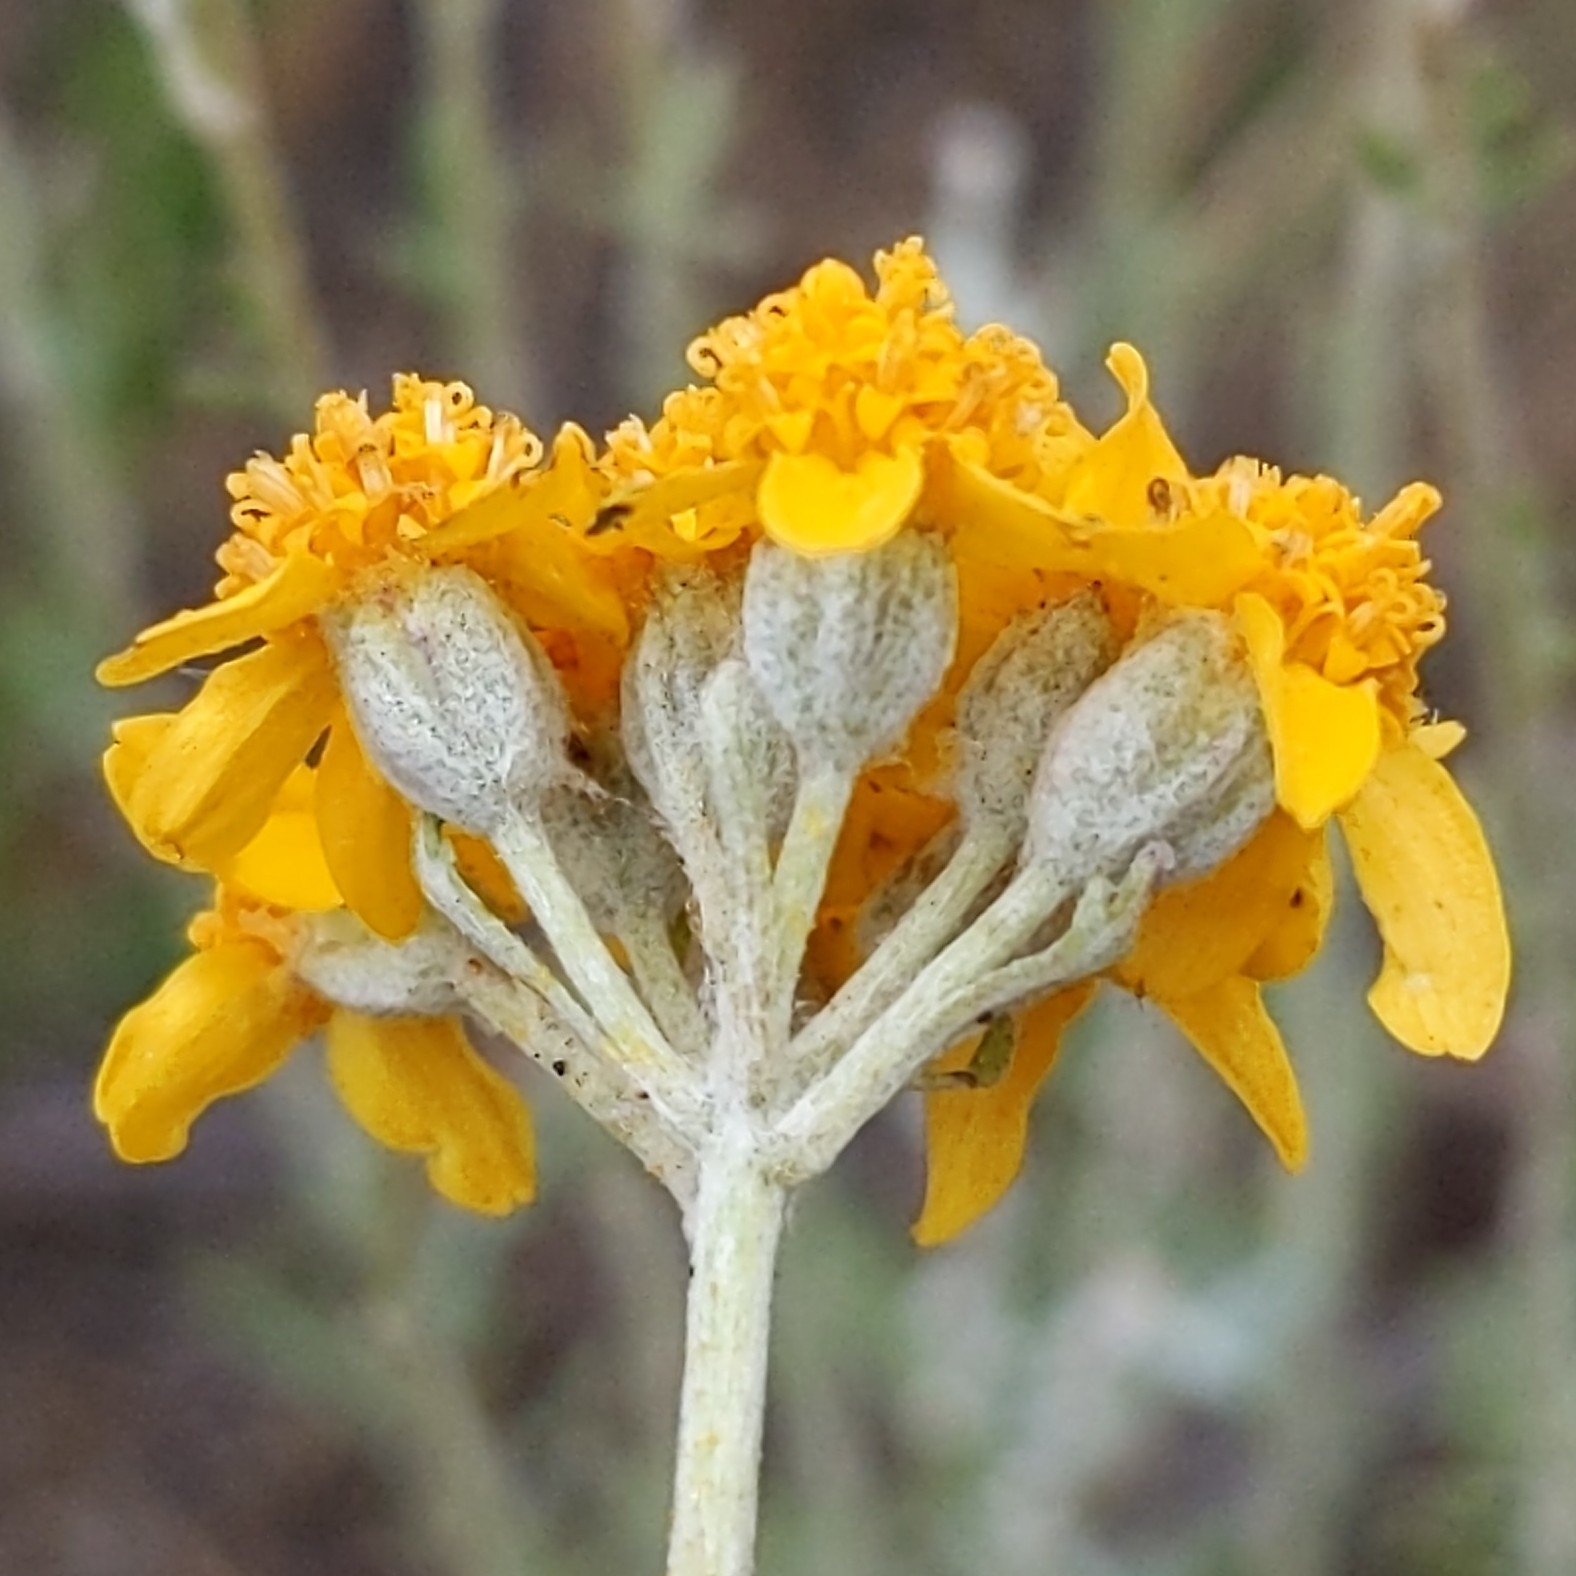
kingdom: Plantae
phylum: Tracheophyta
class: Magnoliopsida
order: Asterales
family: Asteraceae
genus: Eriophyllum
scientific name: Eriophyllum confertiflorum
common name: Golden-yarrow
